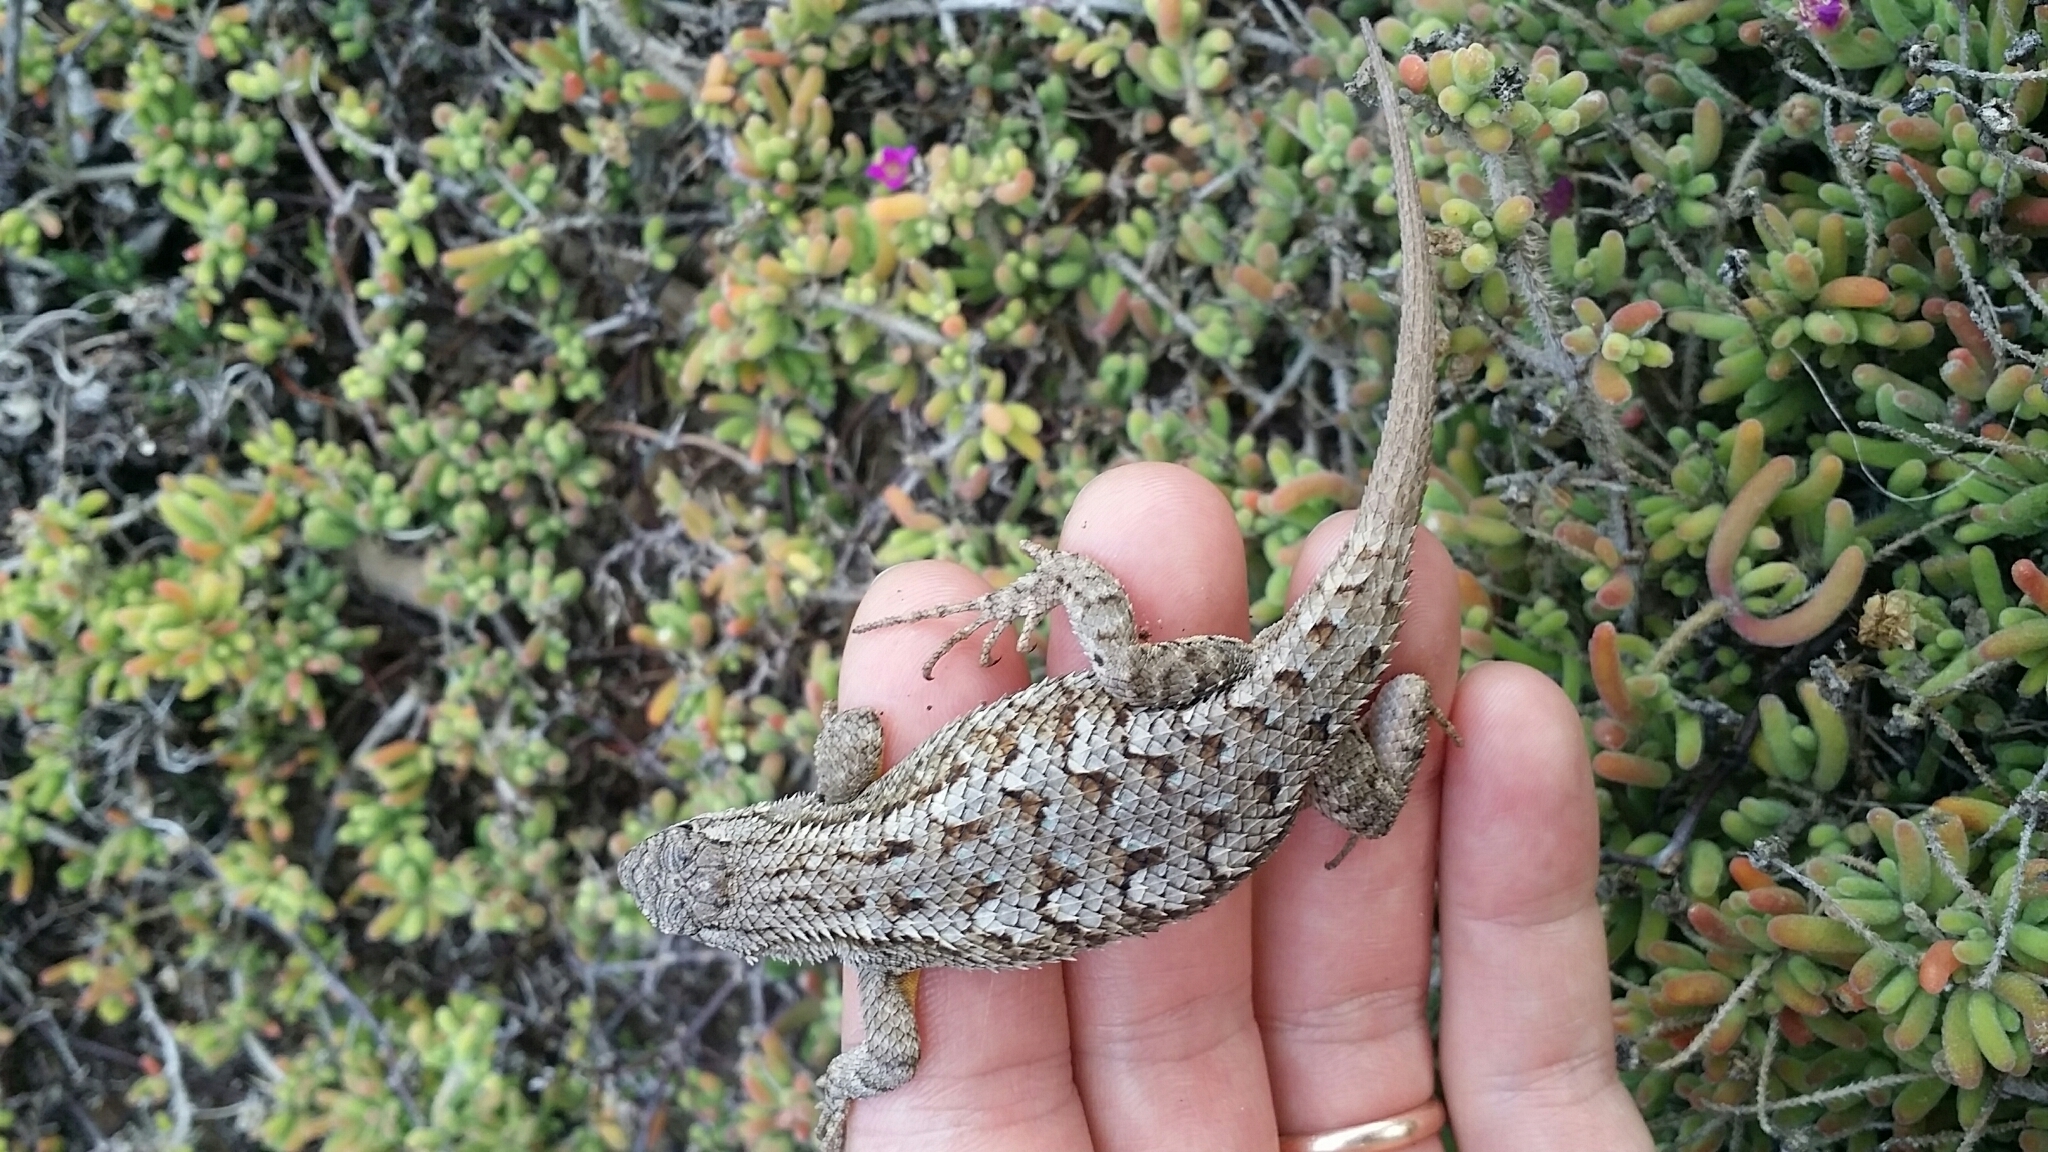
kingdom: Animalia
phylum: Chordata
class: Squamata
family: Phrynosomatidae
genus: Sceloporus
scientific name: Sceloporus occidentalis
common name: Western fence lizard
